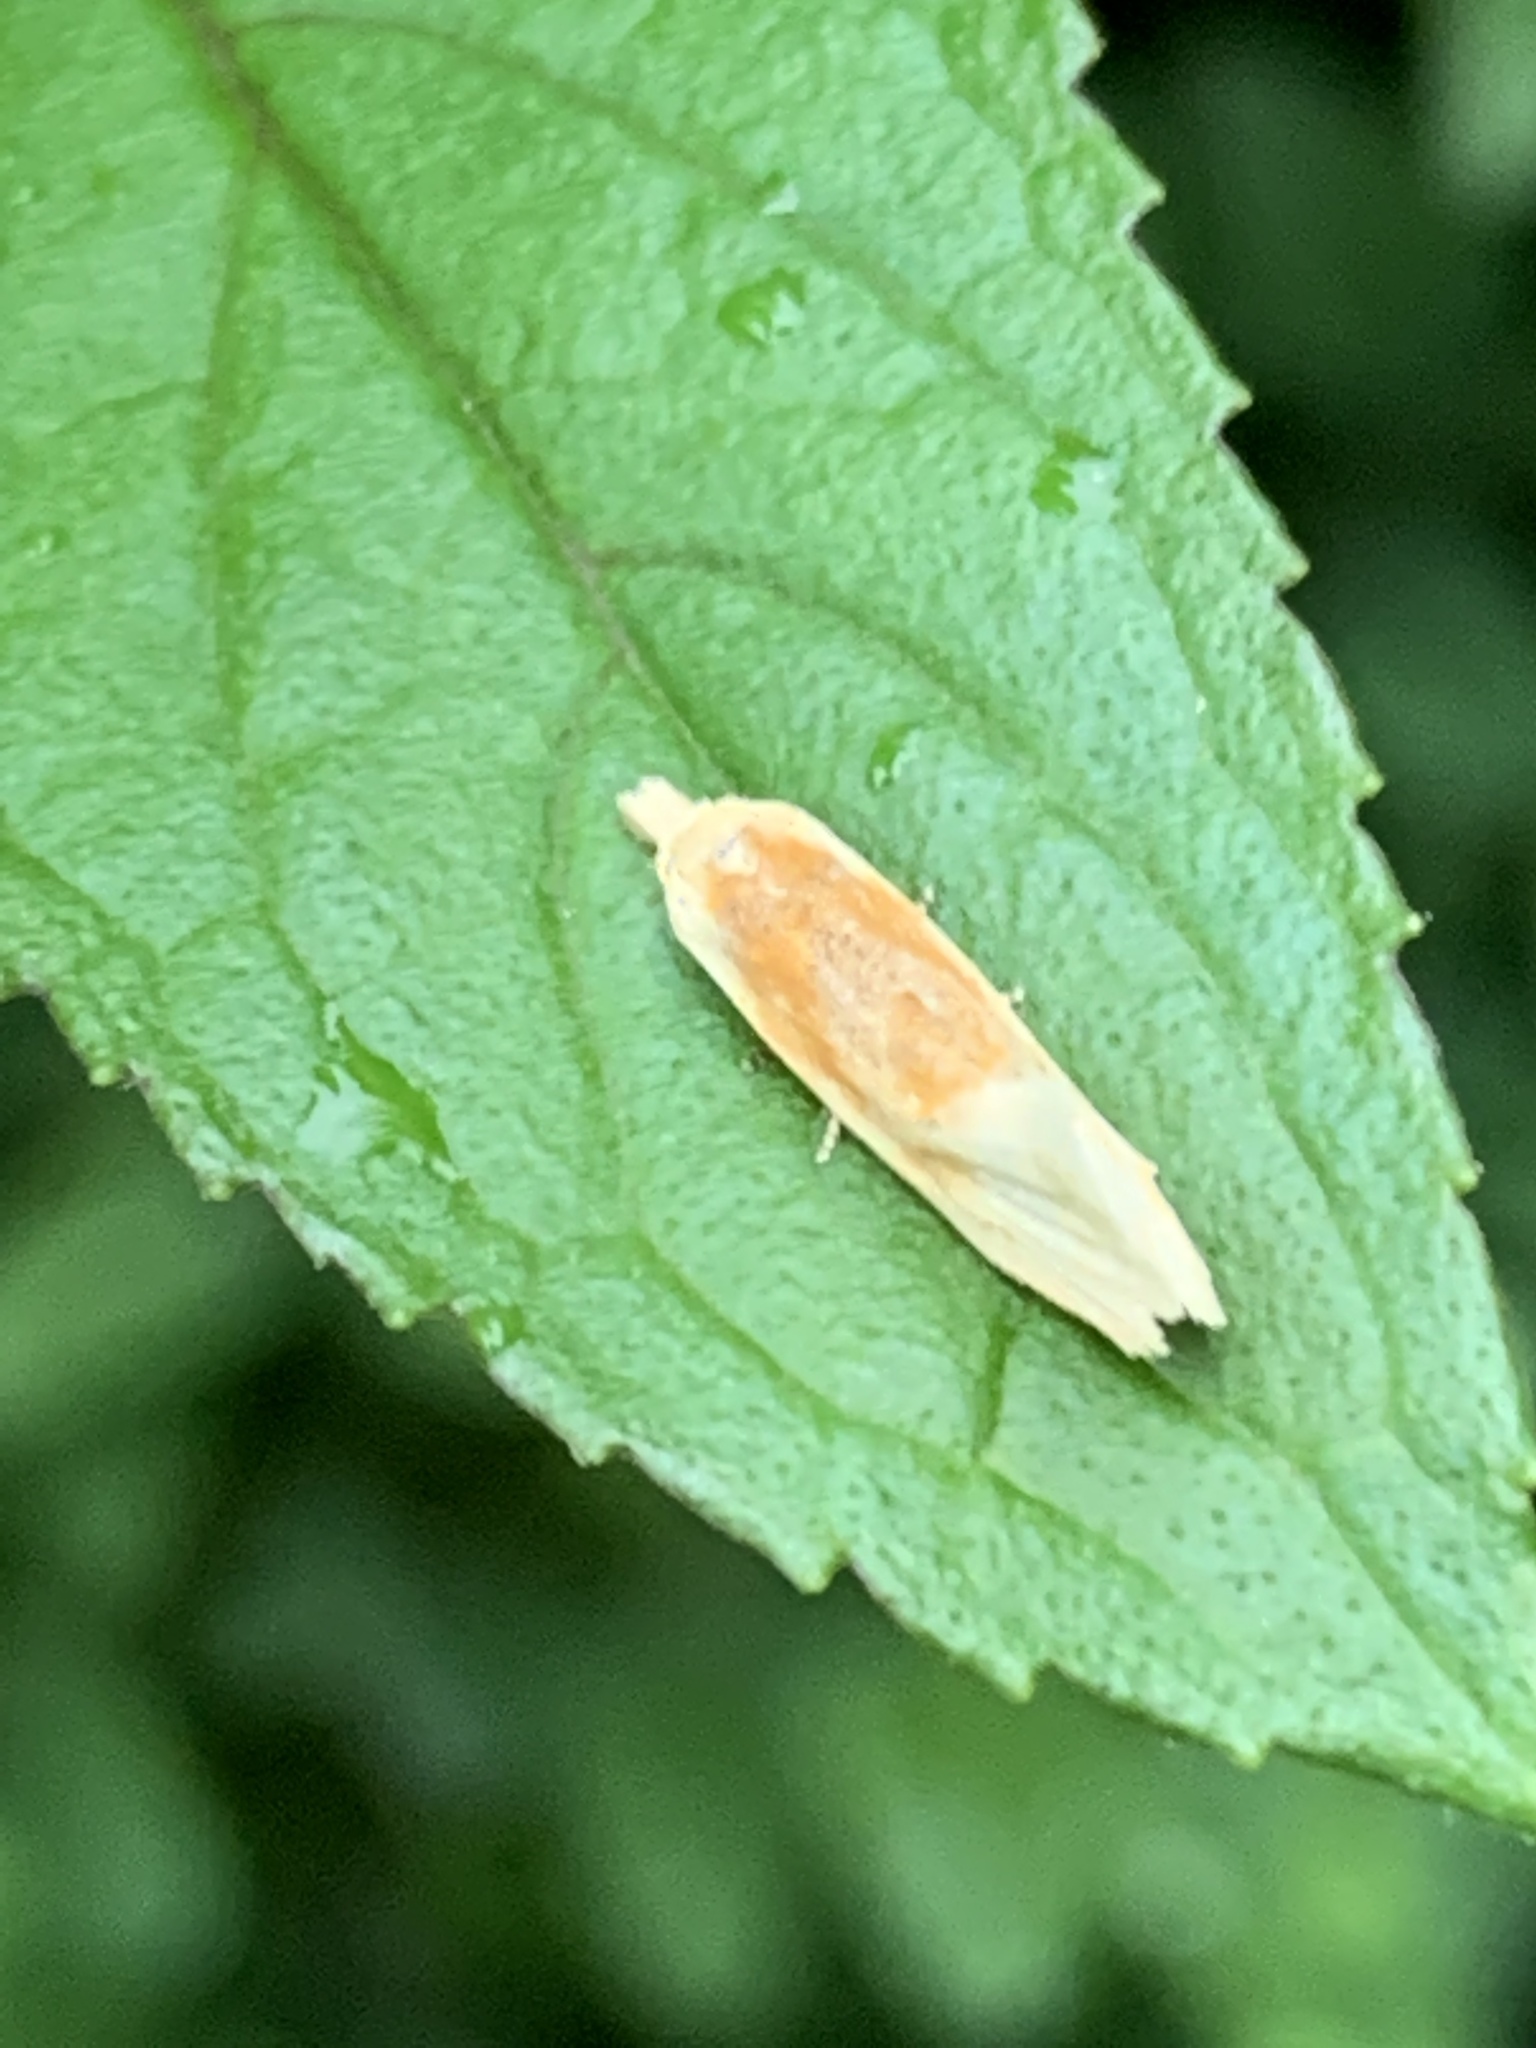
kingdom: Animalia
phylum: Arthropoda
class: Insecta
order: Lepidoptera
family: Tortricidae
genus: Aethes
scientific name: Aethes floccosana
